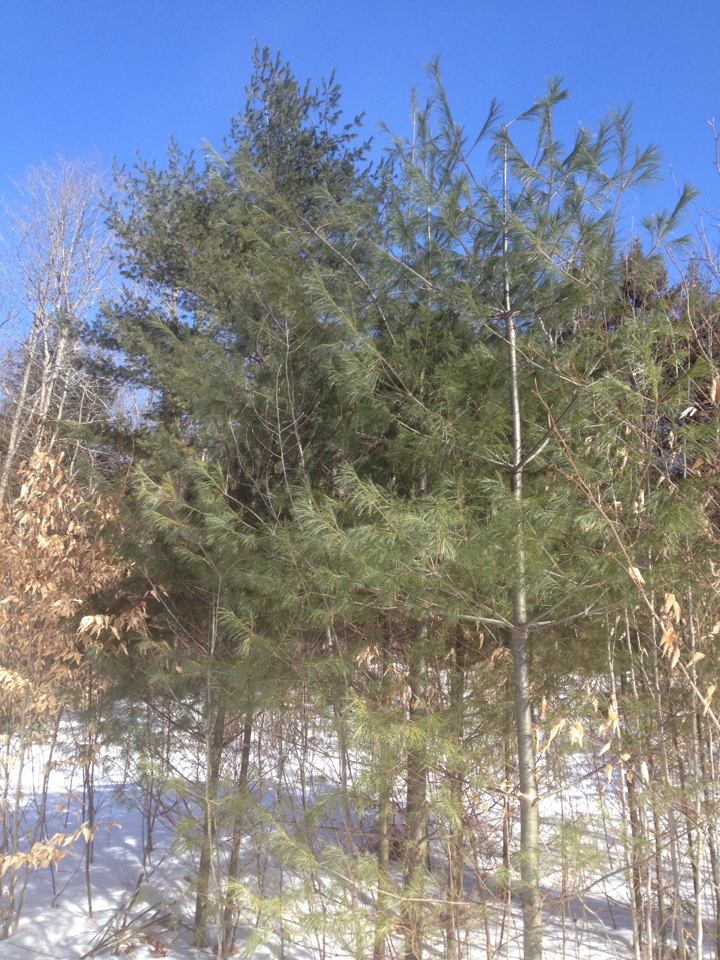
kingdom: Plantae
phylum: Tracheophyta
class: Pinopsida
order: Pinales
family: Pinaceae
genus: Pinus
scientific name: Pinus strobus
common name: Weymouth pine
